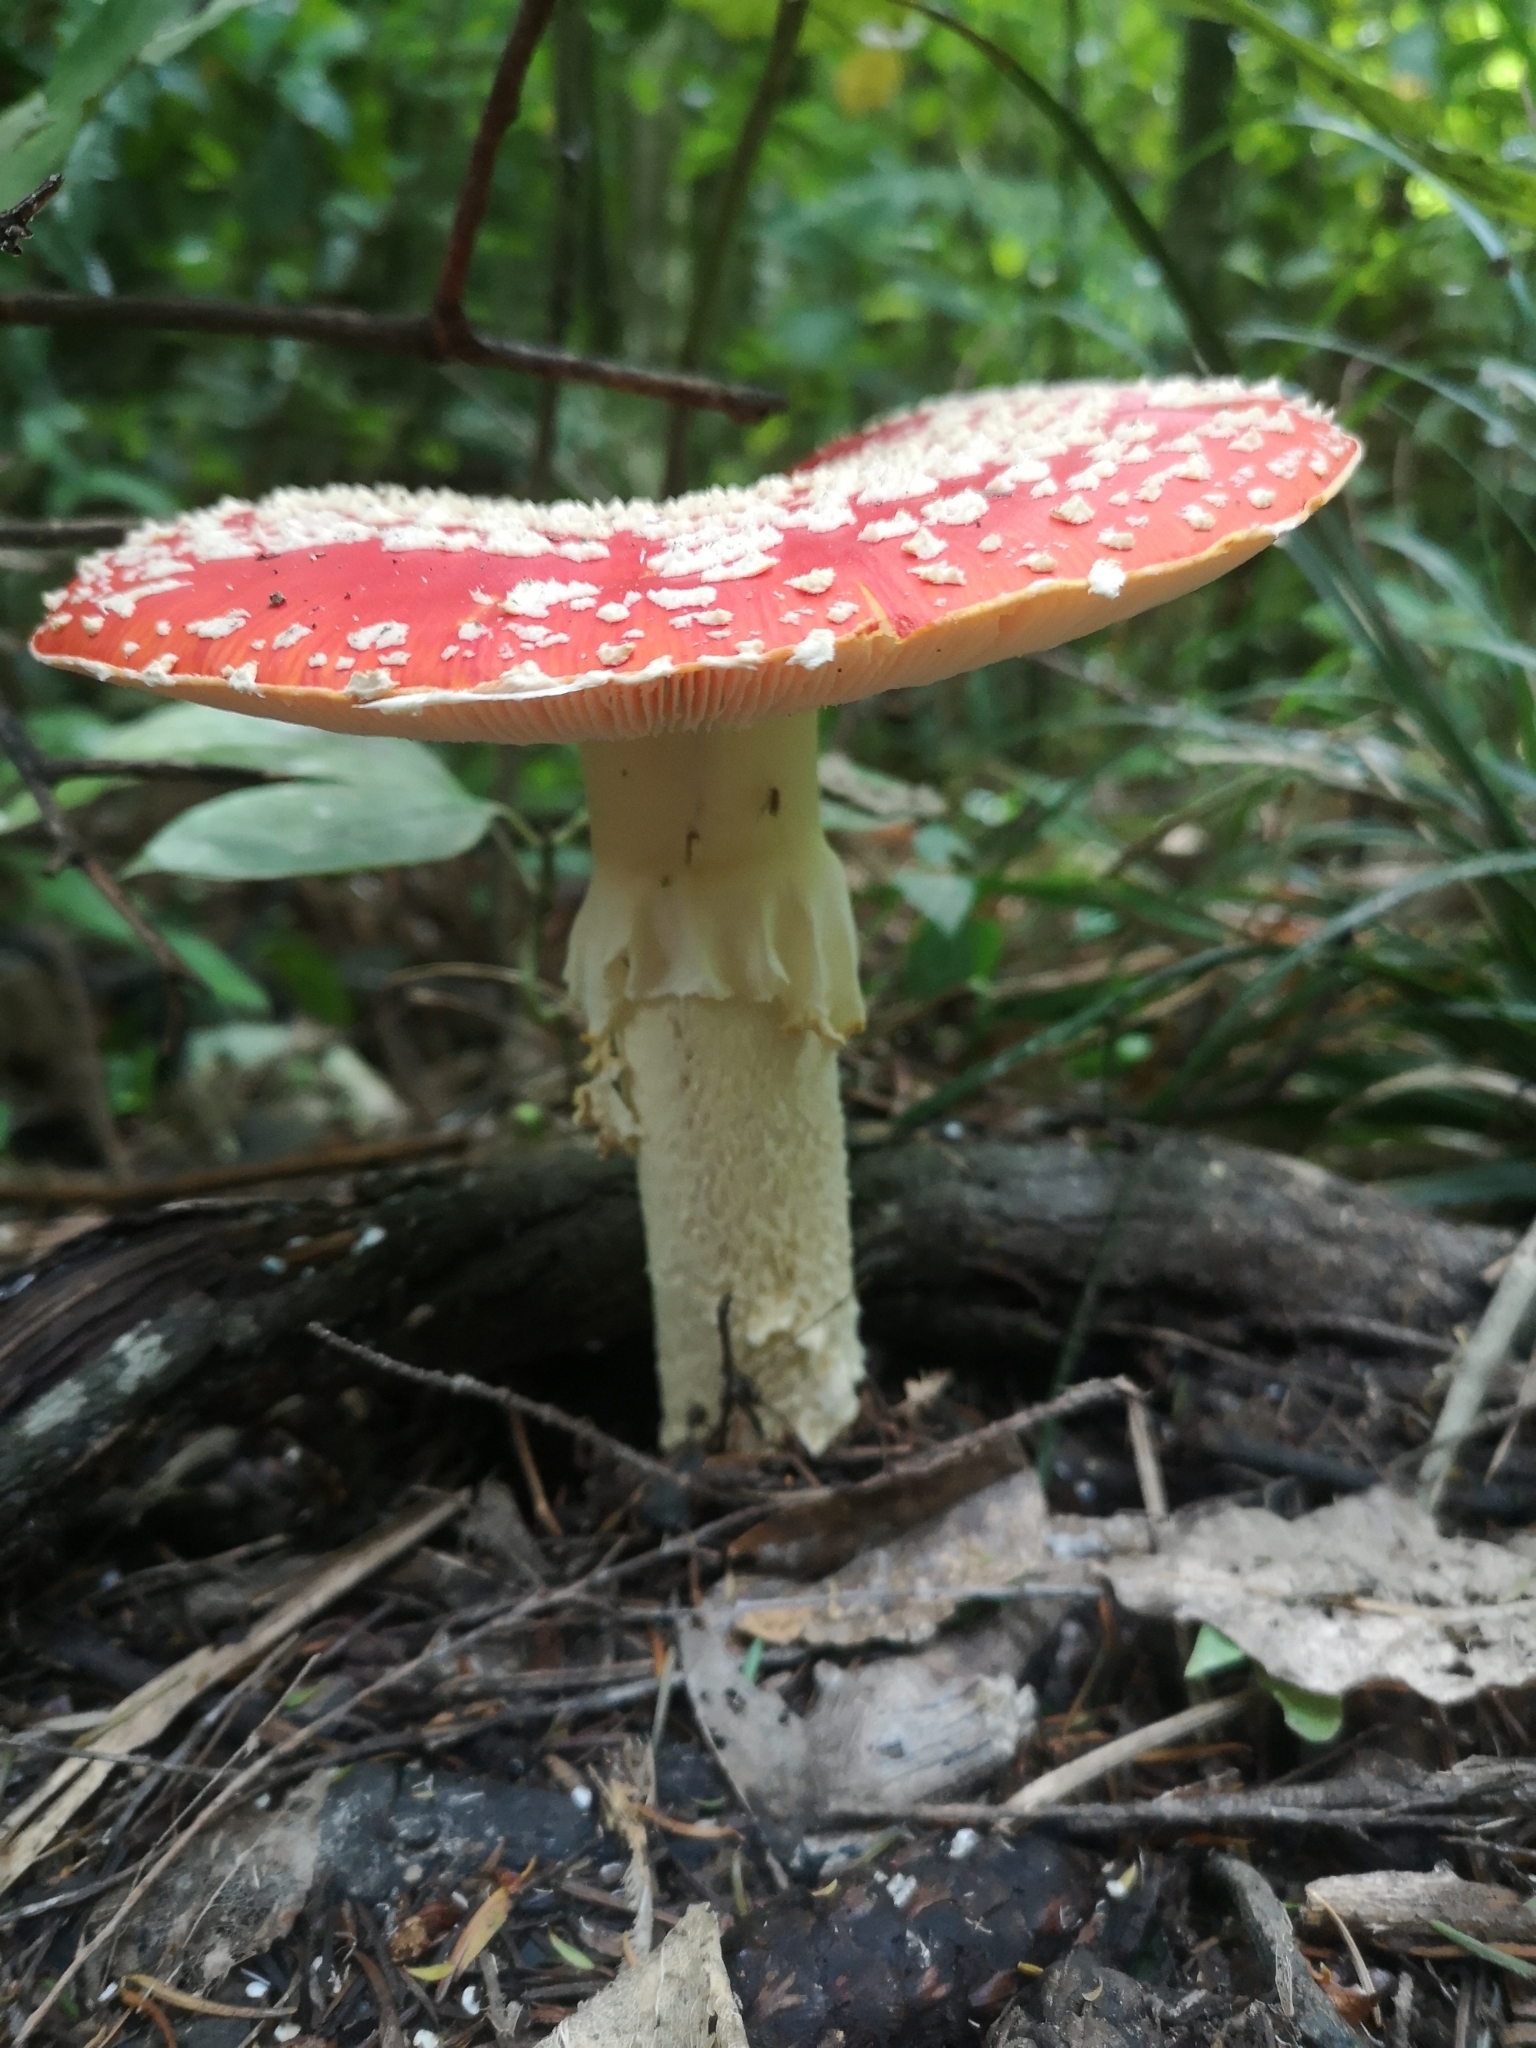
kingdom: Fungi
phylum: Basidiomycota
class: Agaricomycetes
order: Agaricales
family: Amanitaceae
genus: Amanita
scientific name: Amanita muscaria
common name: Fly agaric
